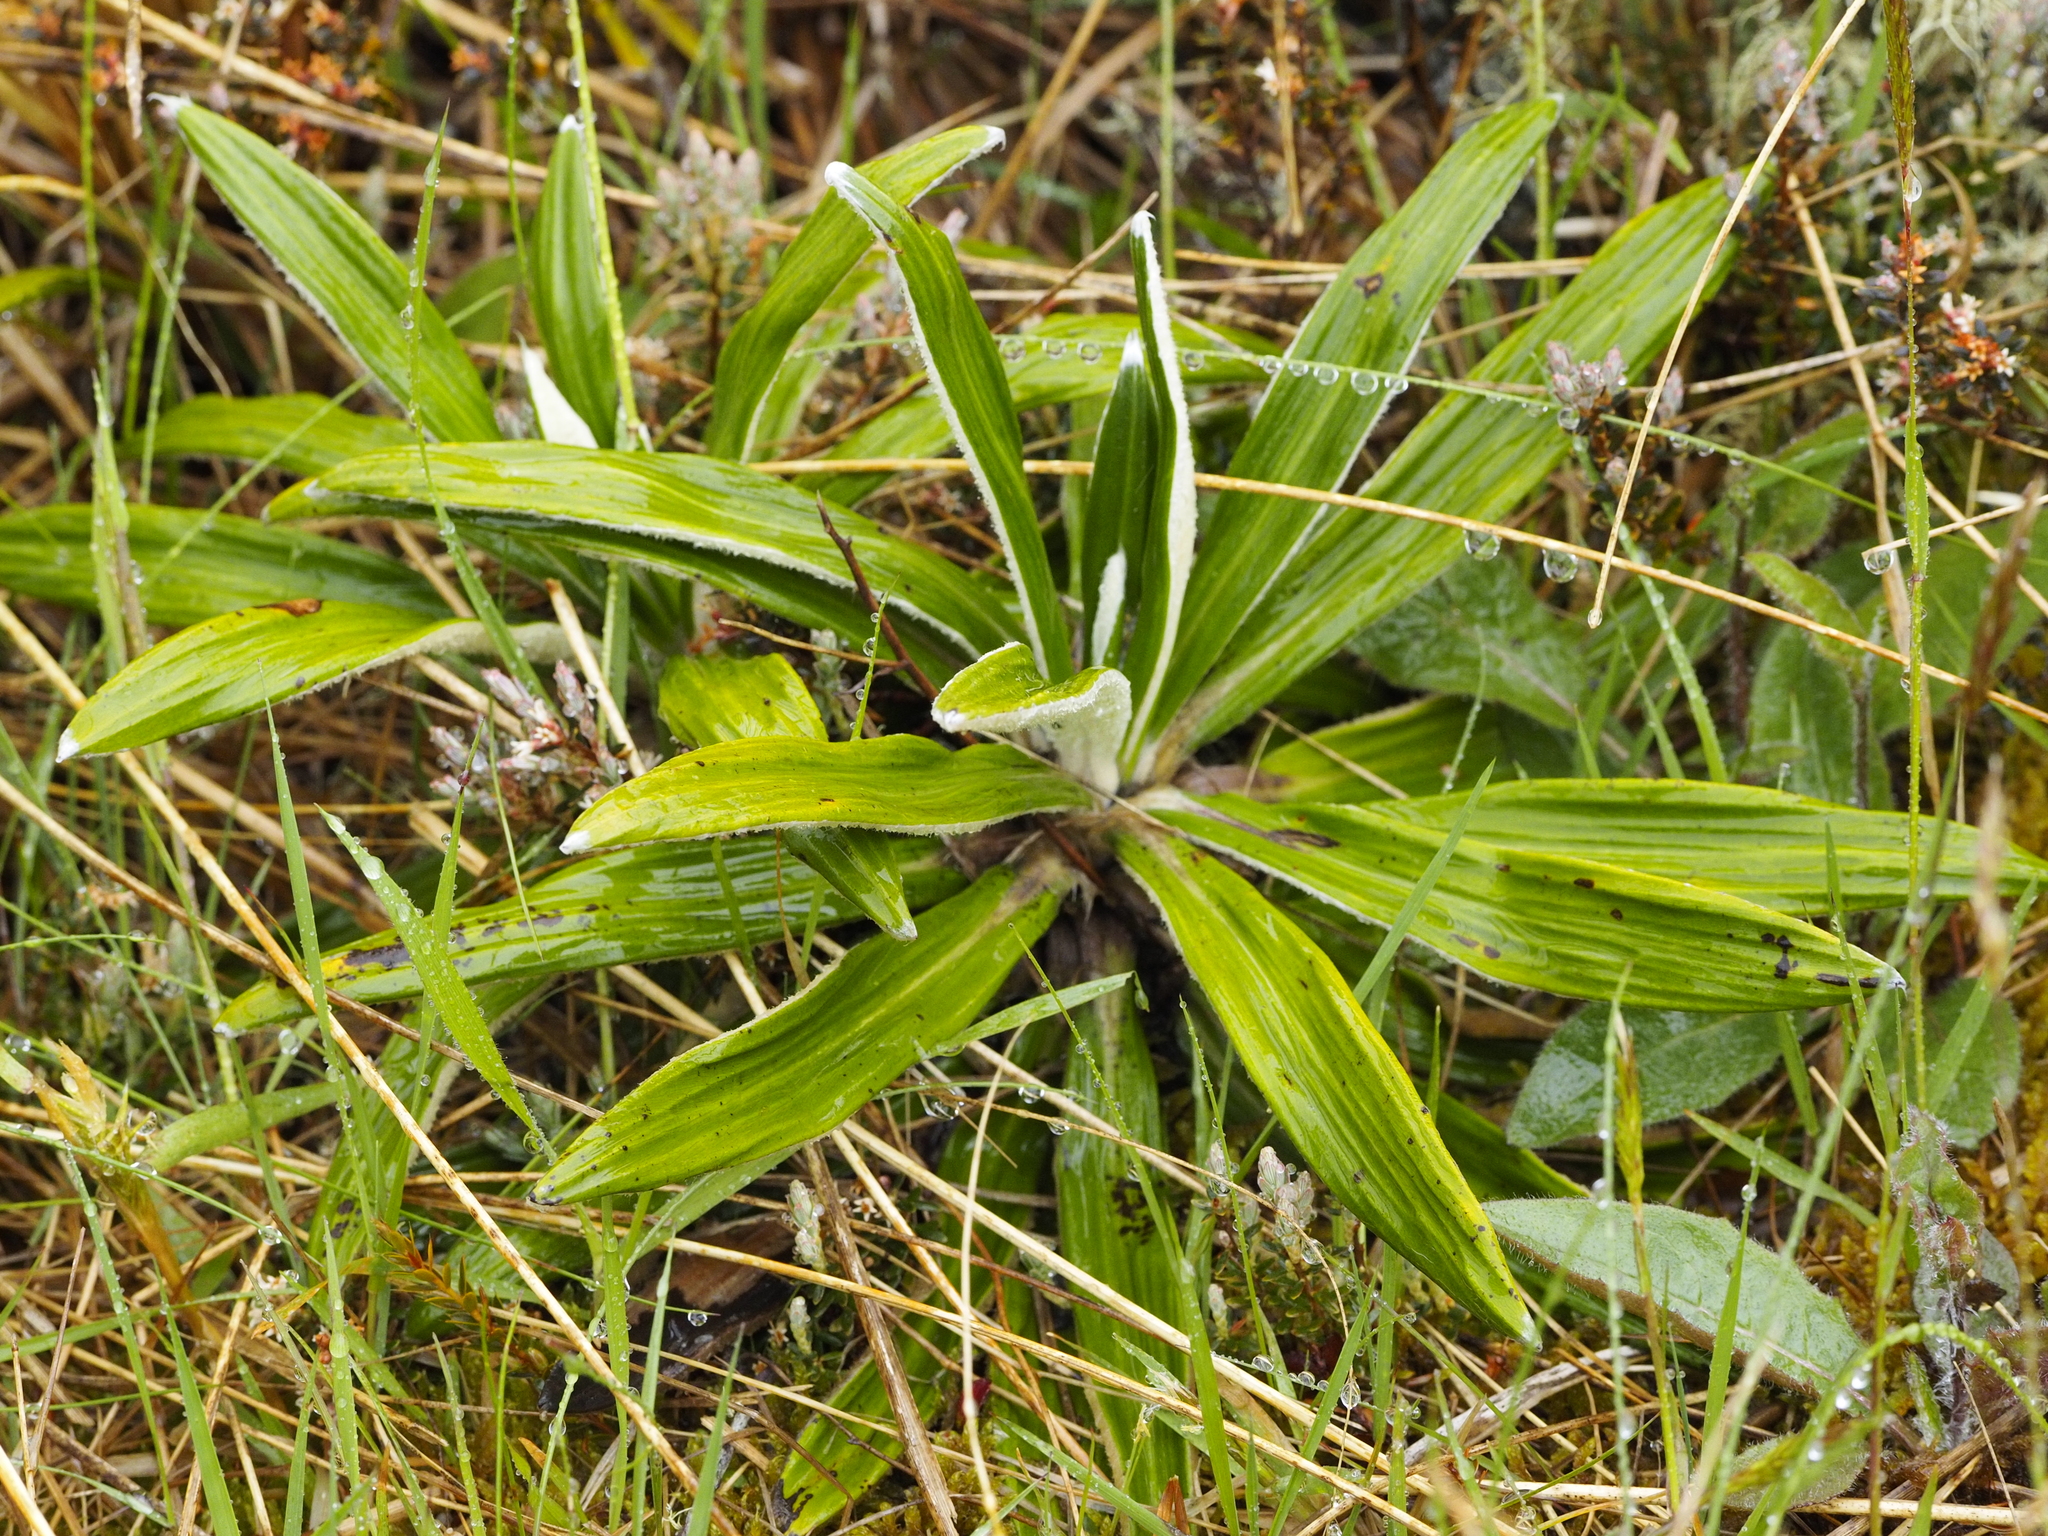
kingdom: Plantae
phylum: Tracheophyta
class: Magnoliopsida
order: Asterales
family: Asteraceae
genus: Celmisia
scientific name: Celmisia spectabilis
